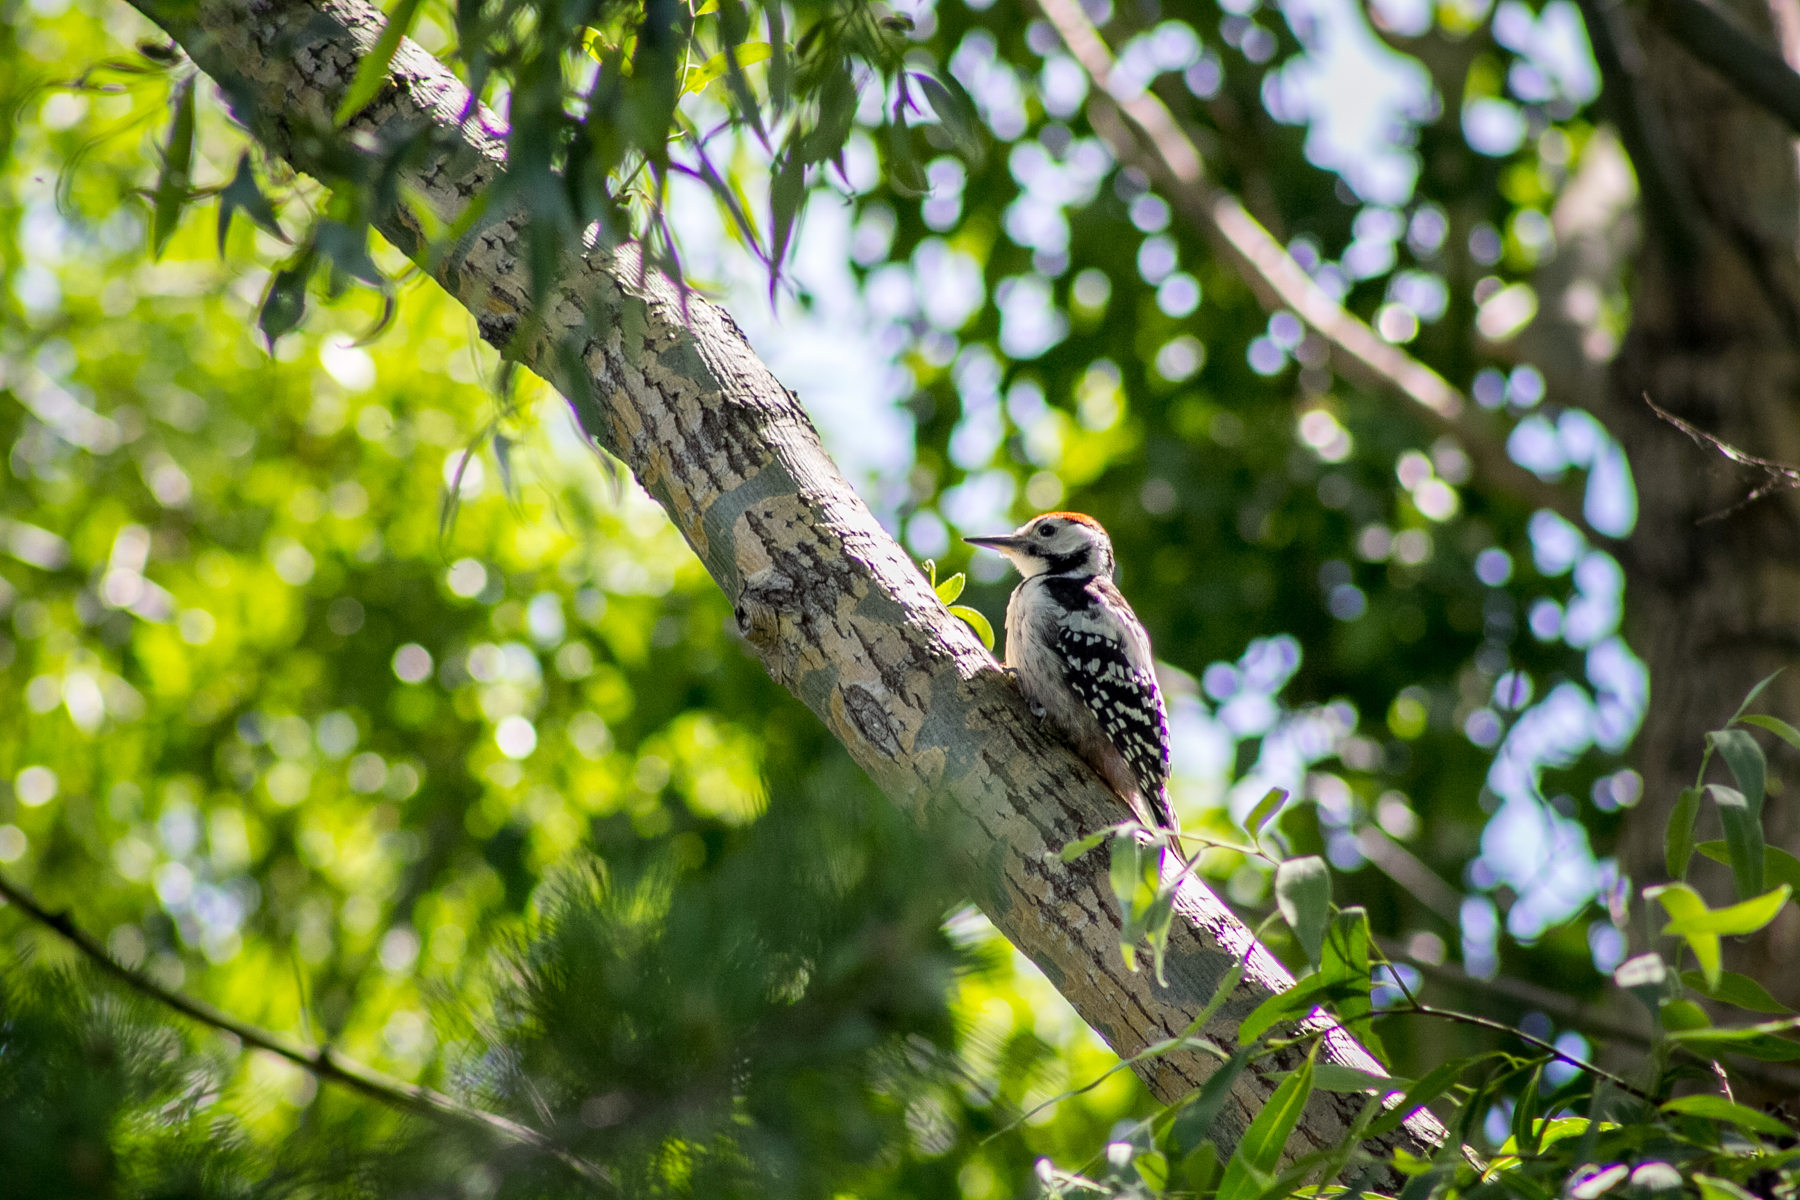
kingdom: Animalia
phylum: Chordata
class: Aves
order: Piciformes
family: Picidae
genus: Dendrocopos
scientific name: Dendrocopos leucotos
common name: White-backed woodpecker
